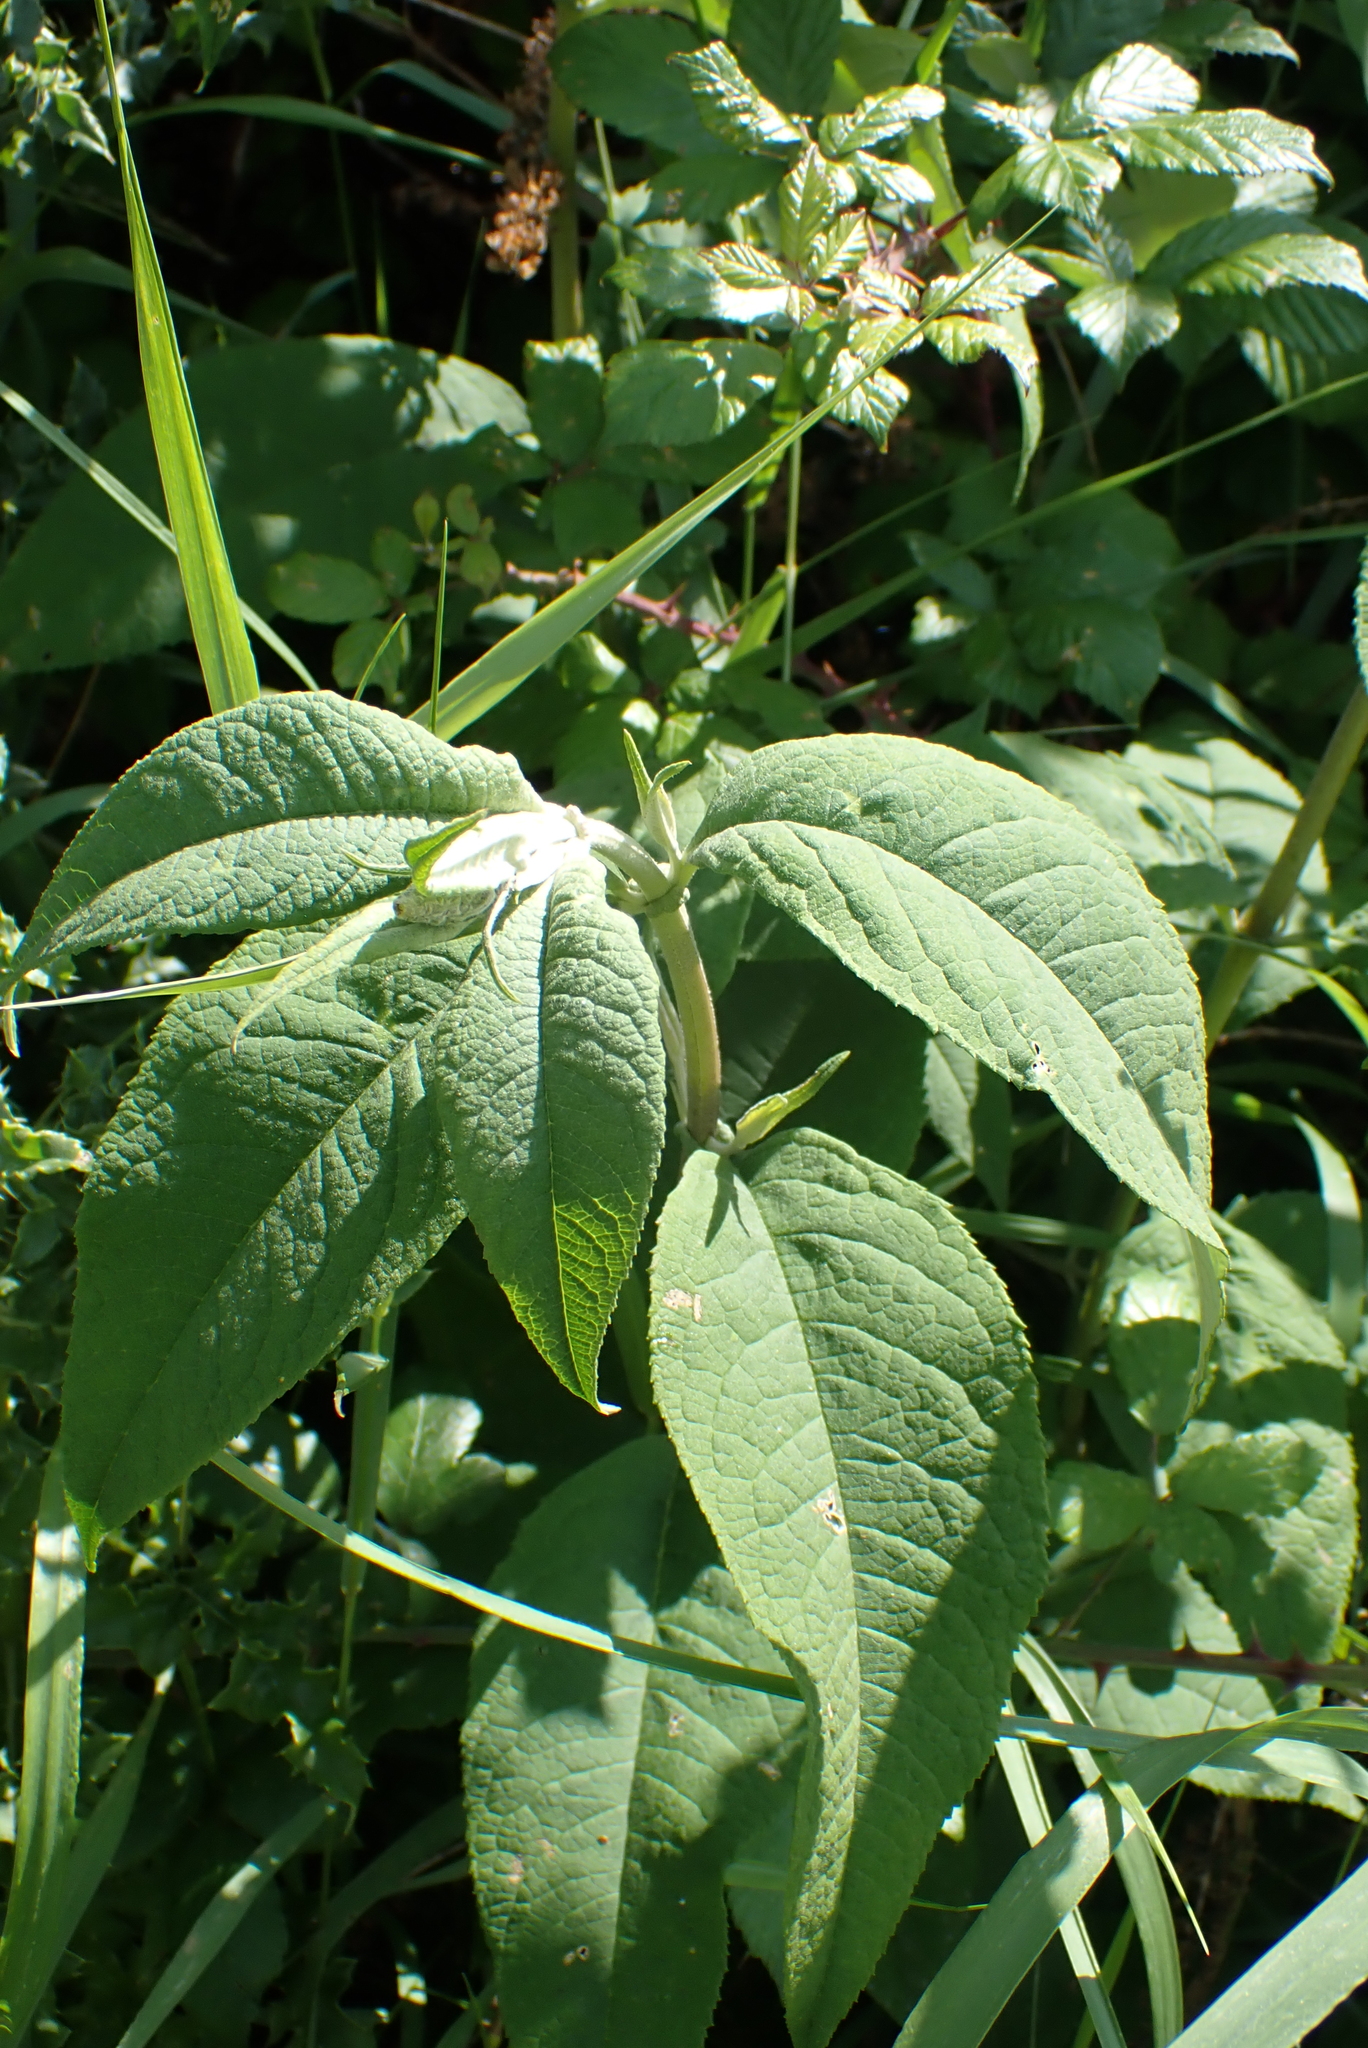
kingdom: Plantae
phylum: Tracheophyta
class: Magnoliopsida
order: Lamiales
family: Scrophulariaceae
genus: Buddleja
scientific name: Buddleja davidii
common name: Butterfly-bush
